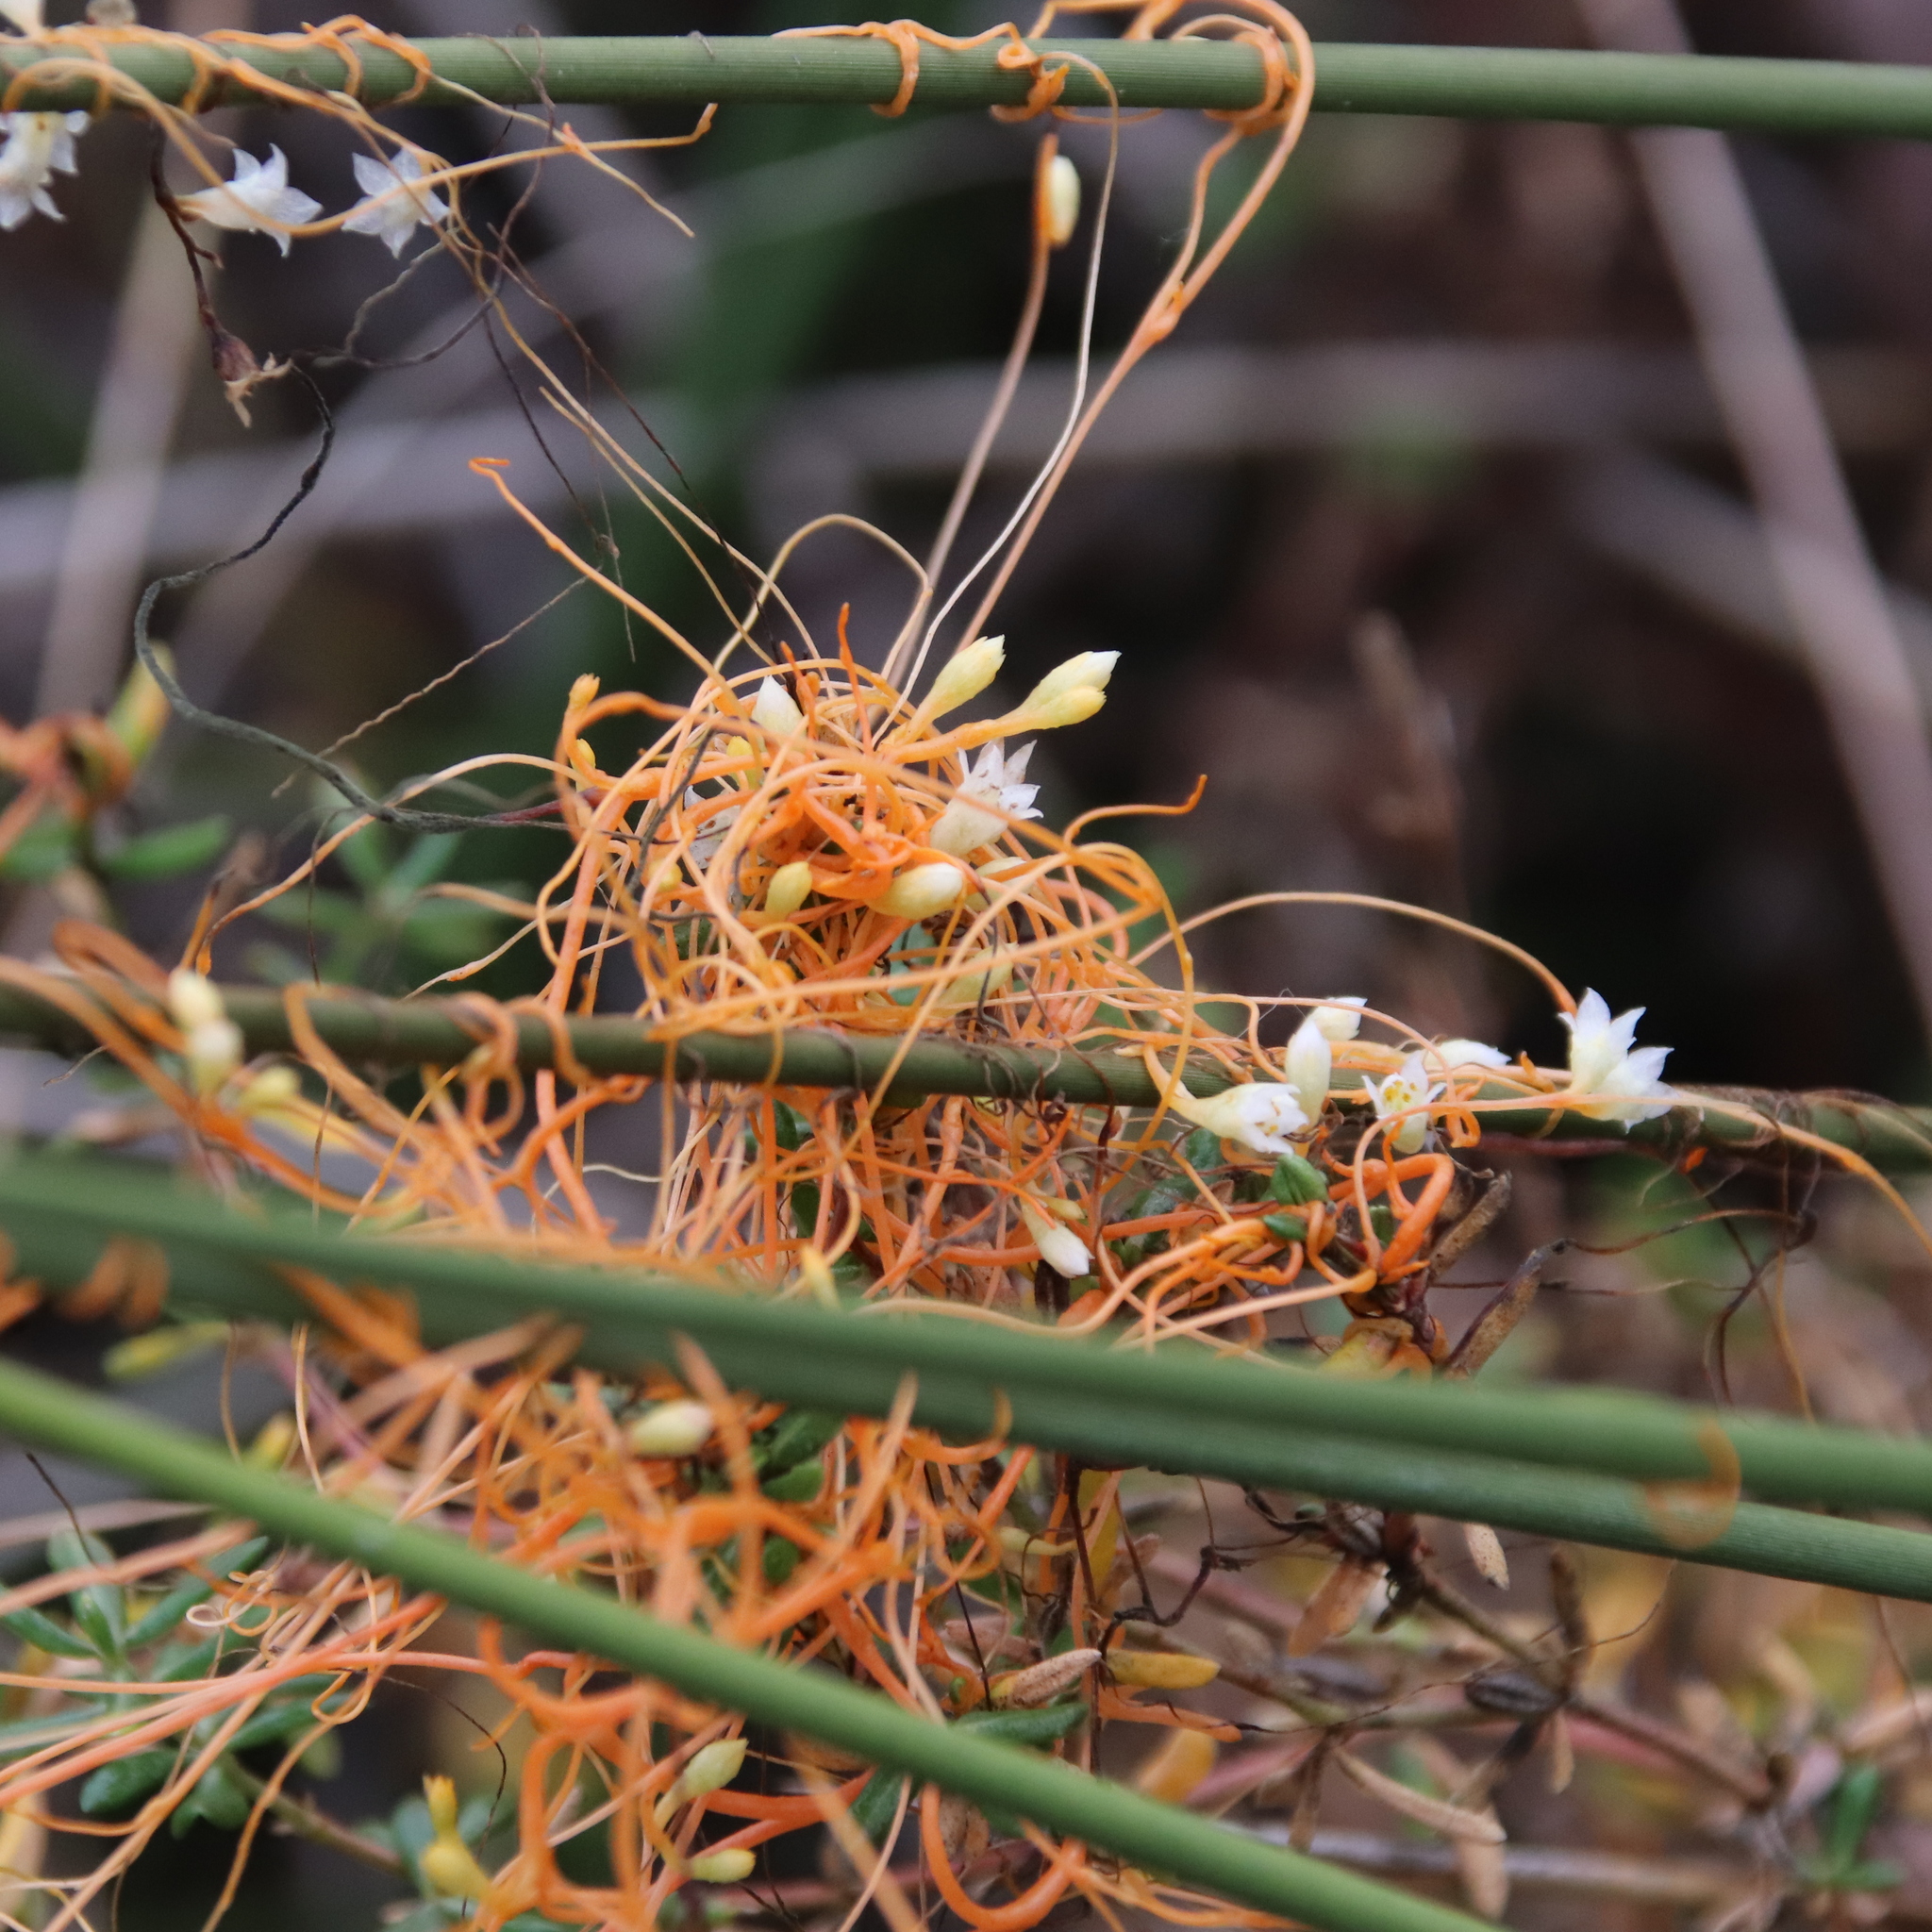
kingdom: Plantae
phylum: Tracheophyta
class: Magnoliopsida
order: Solanales
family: Convolvulaceae
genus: Cuscuta
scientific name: Cuscuta pacifica
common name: Large saltmarsh dodder
